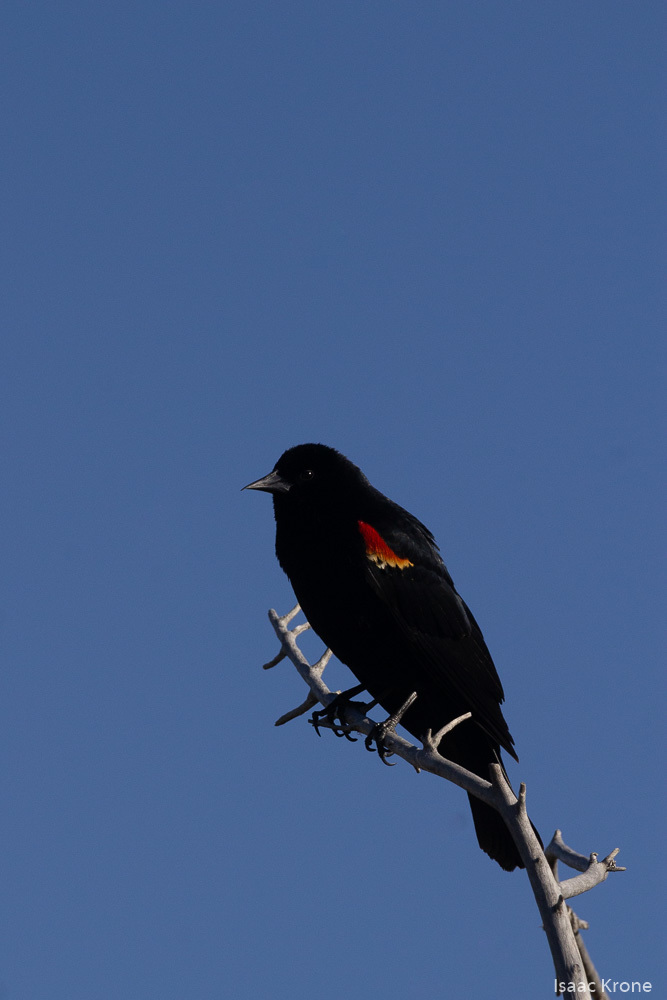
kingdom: Animalia
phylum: Chordata
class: Aves
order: Passeriformes
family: Icteridae
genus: Agelaius
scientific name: Agelaius phoeniceus
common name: Red-winged blackbird
